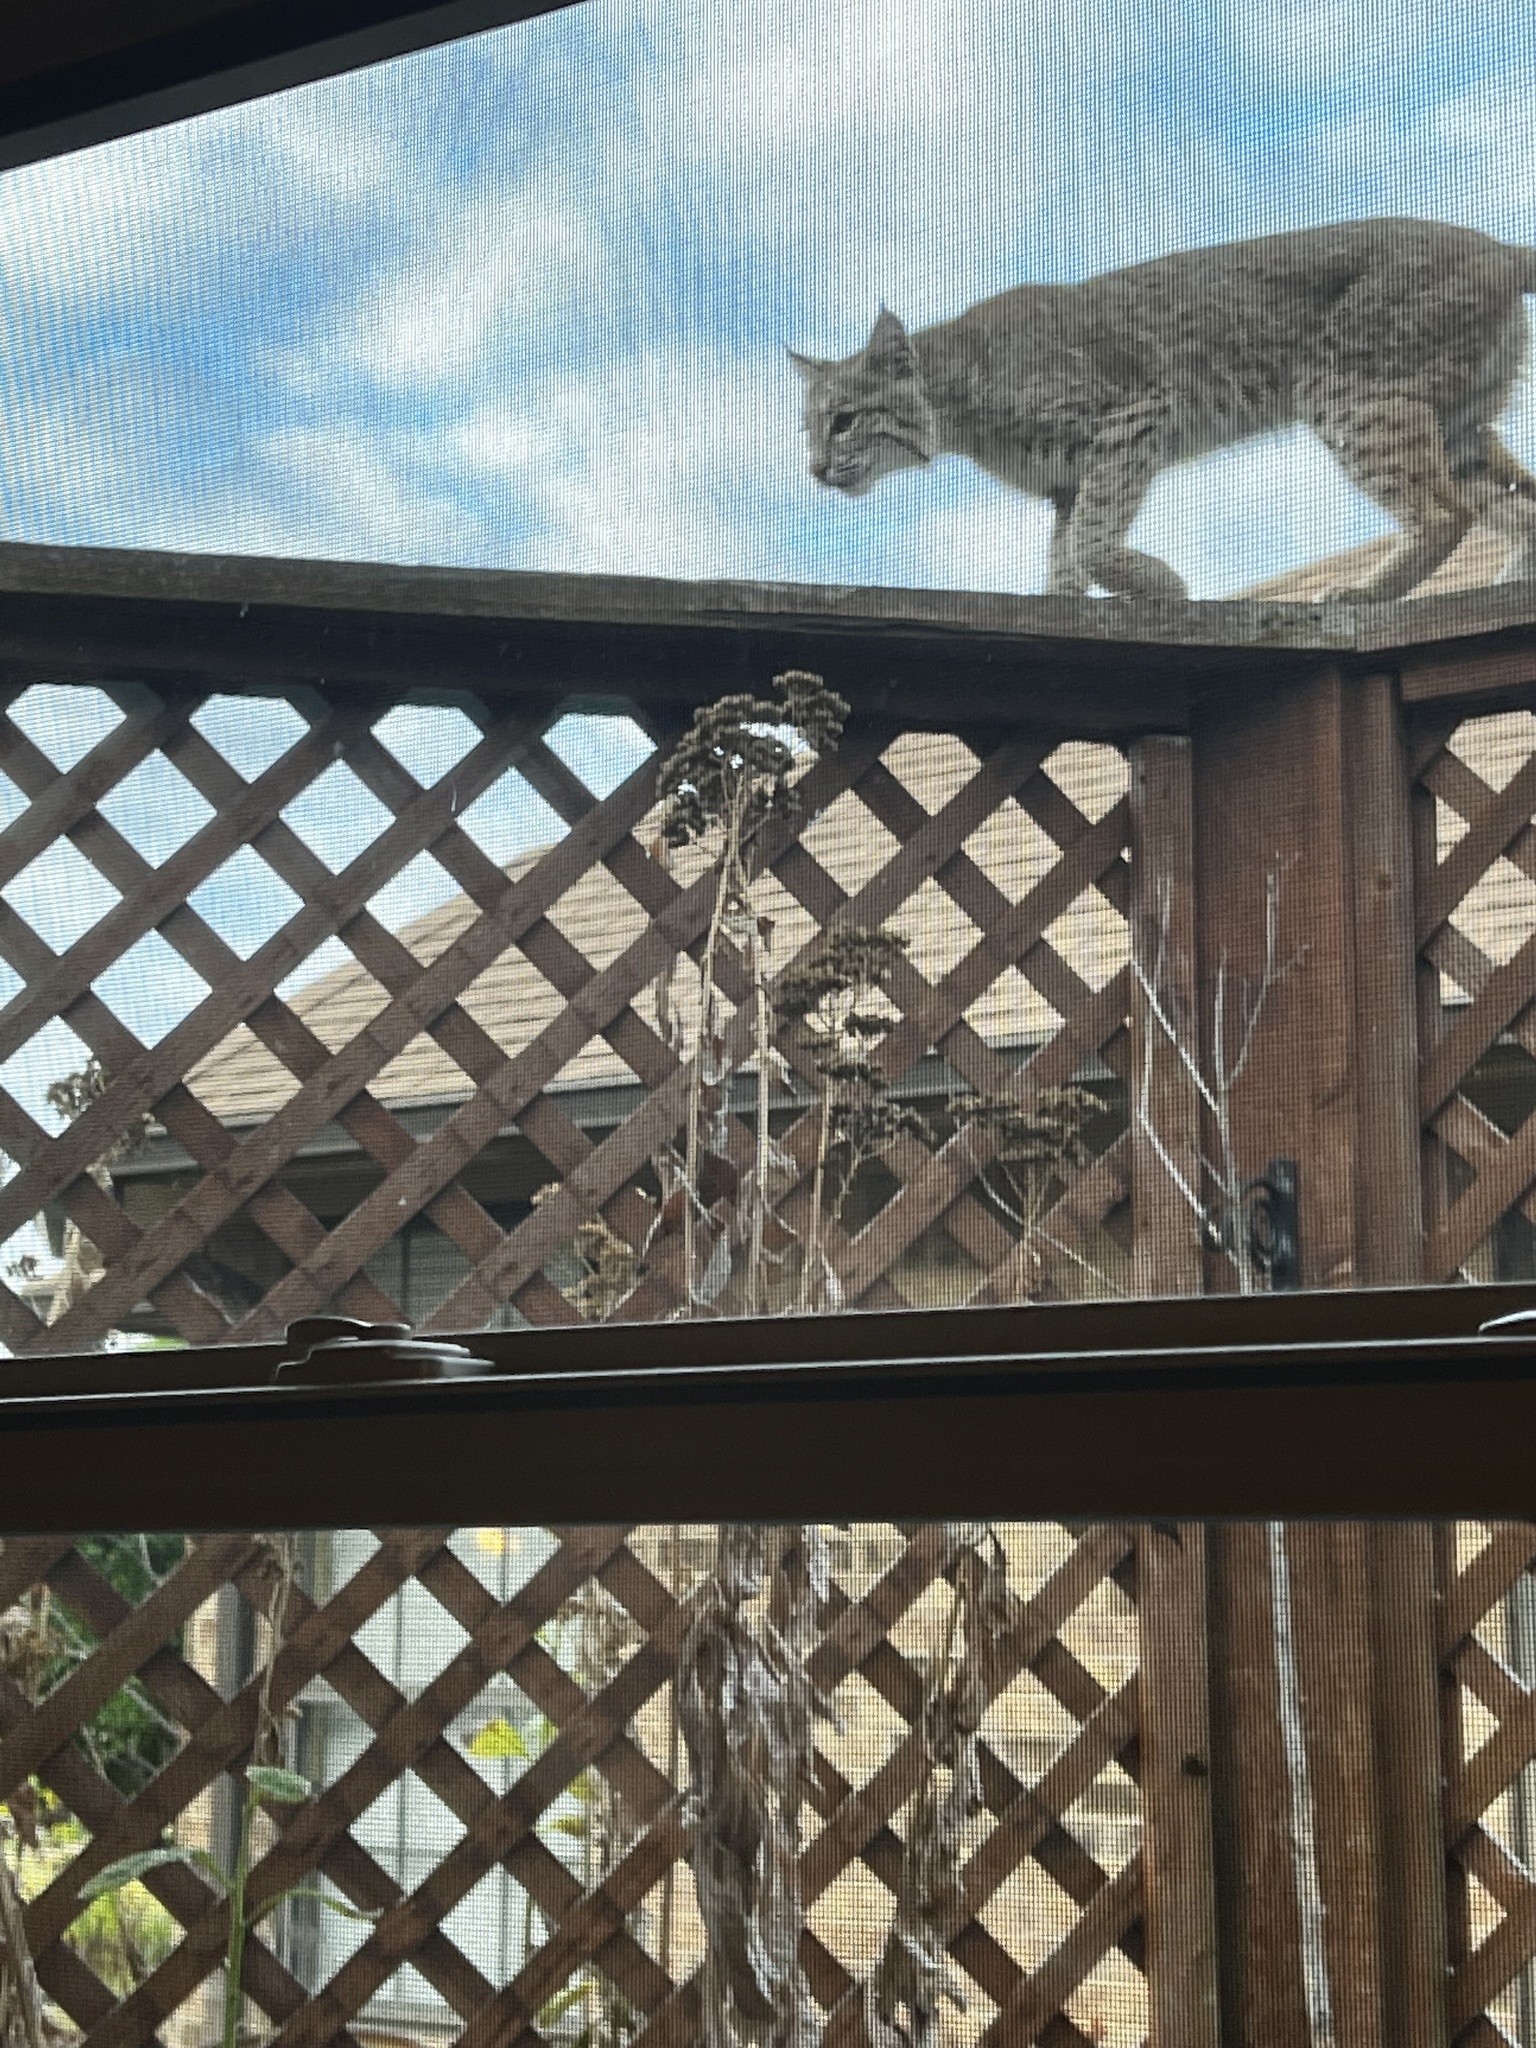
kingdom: Animalia
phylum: Chordata
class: Mammalia
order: Carnivora
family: Felidae
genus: Lynx
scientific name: Lynx rufus
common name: Bobcat
